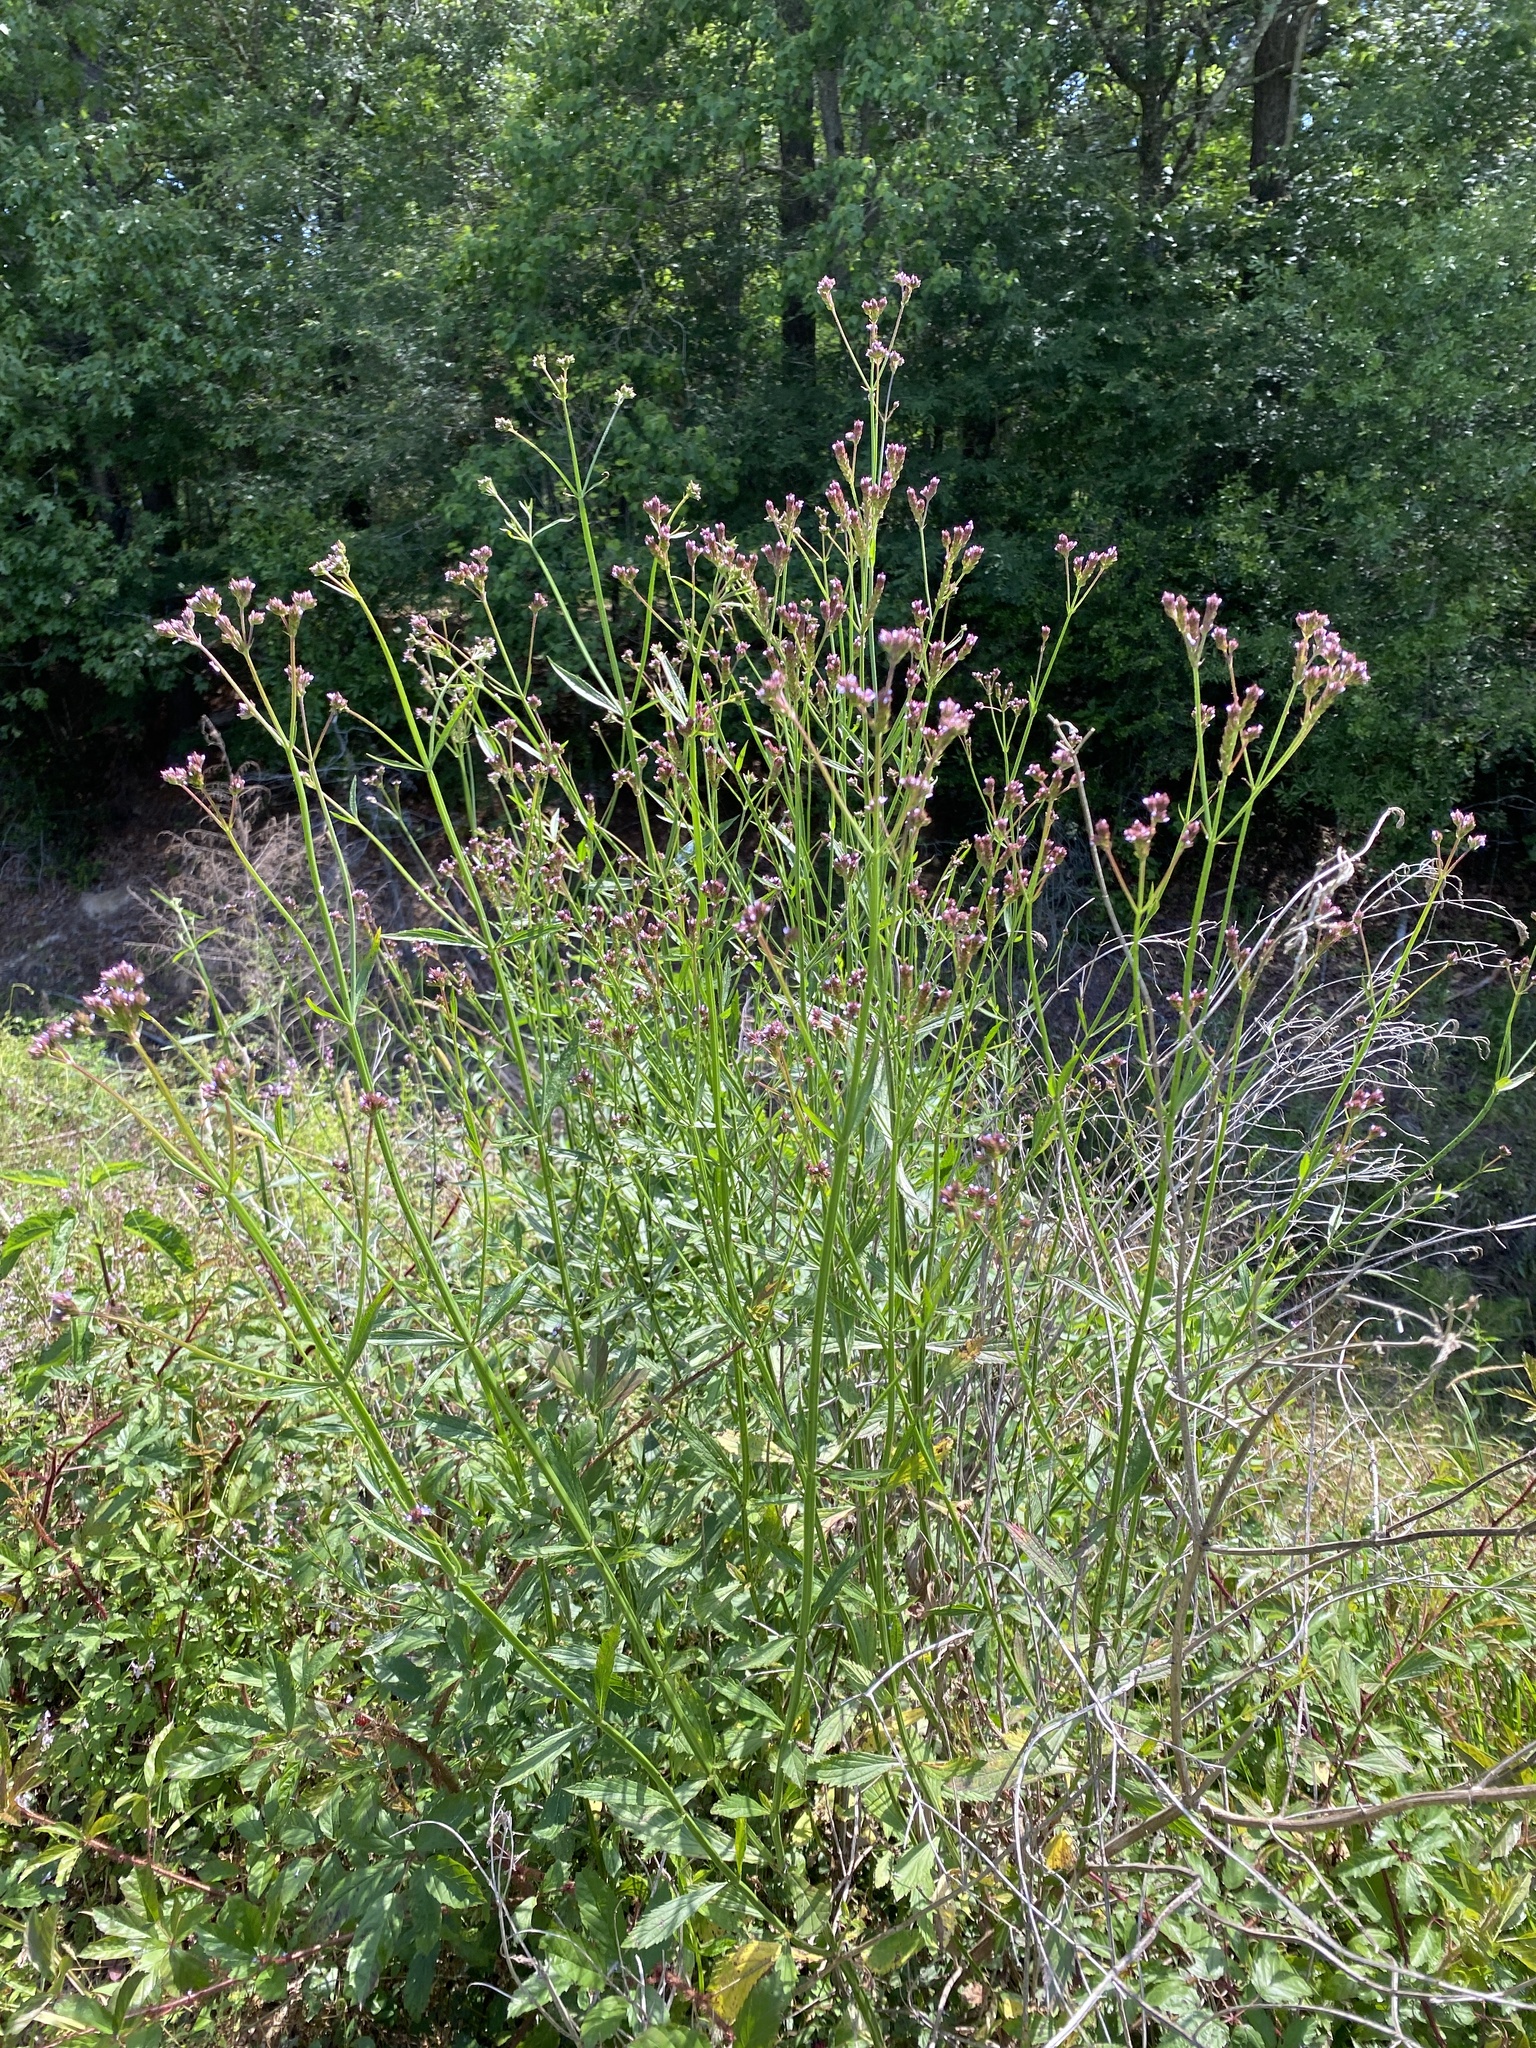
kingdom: Plantae
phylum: Tracheophyta
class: Magnoliopsida
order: Lamiales
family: Verbenaceae
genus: Verbena
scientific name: Verbena brasiliensis
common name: Brazilian vervain
